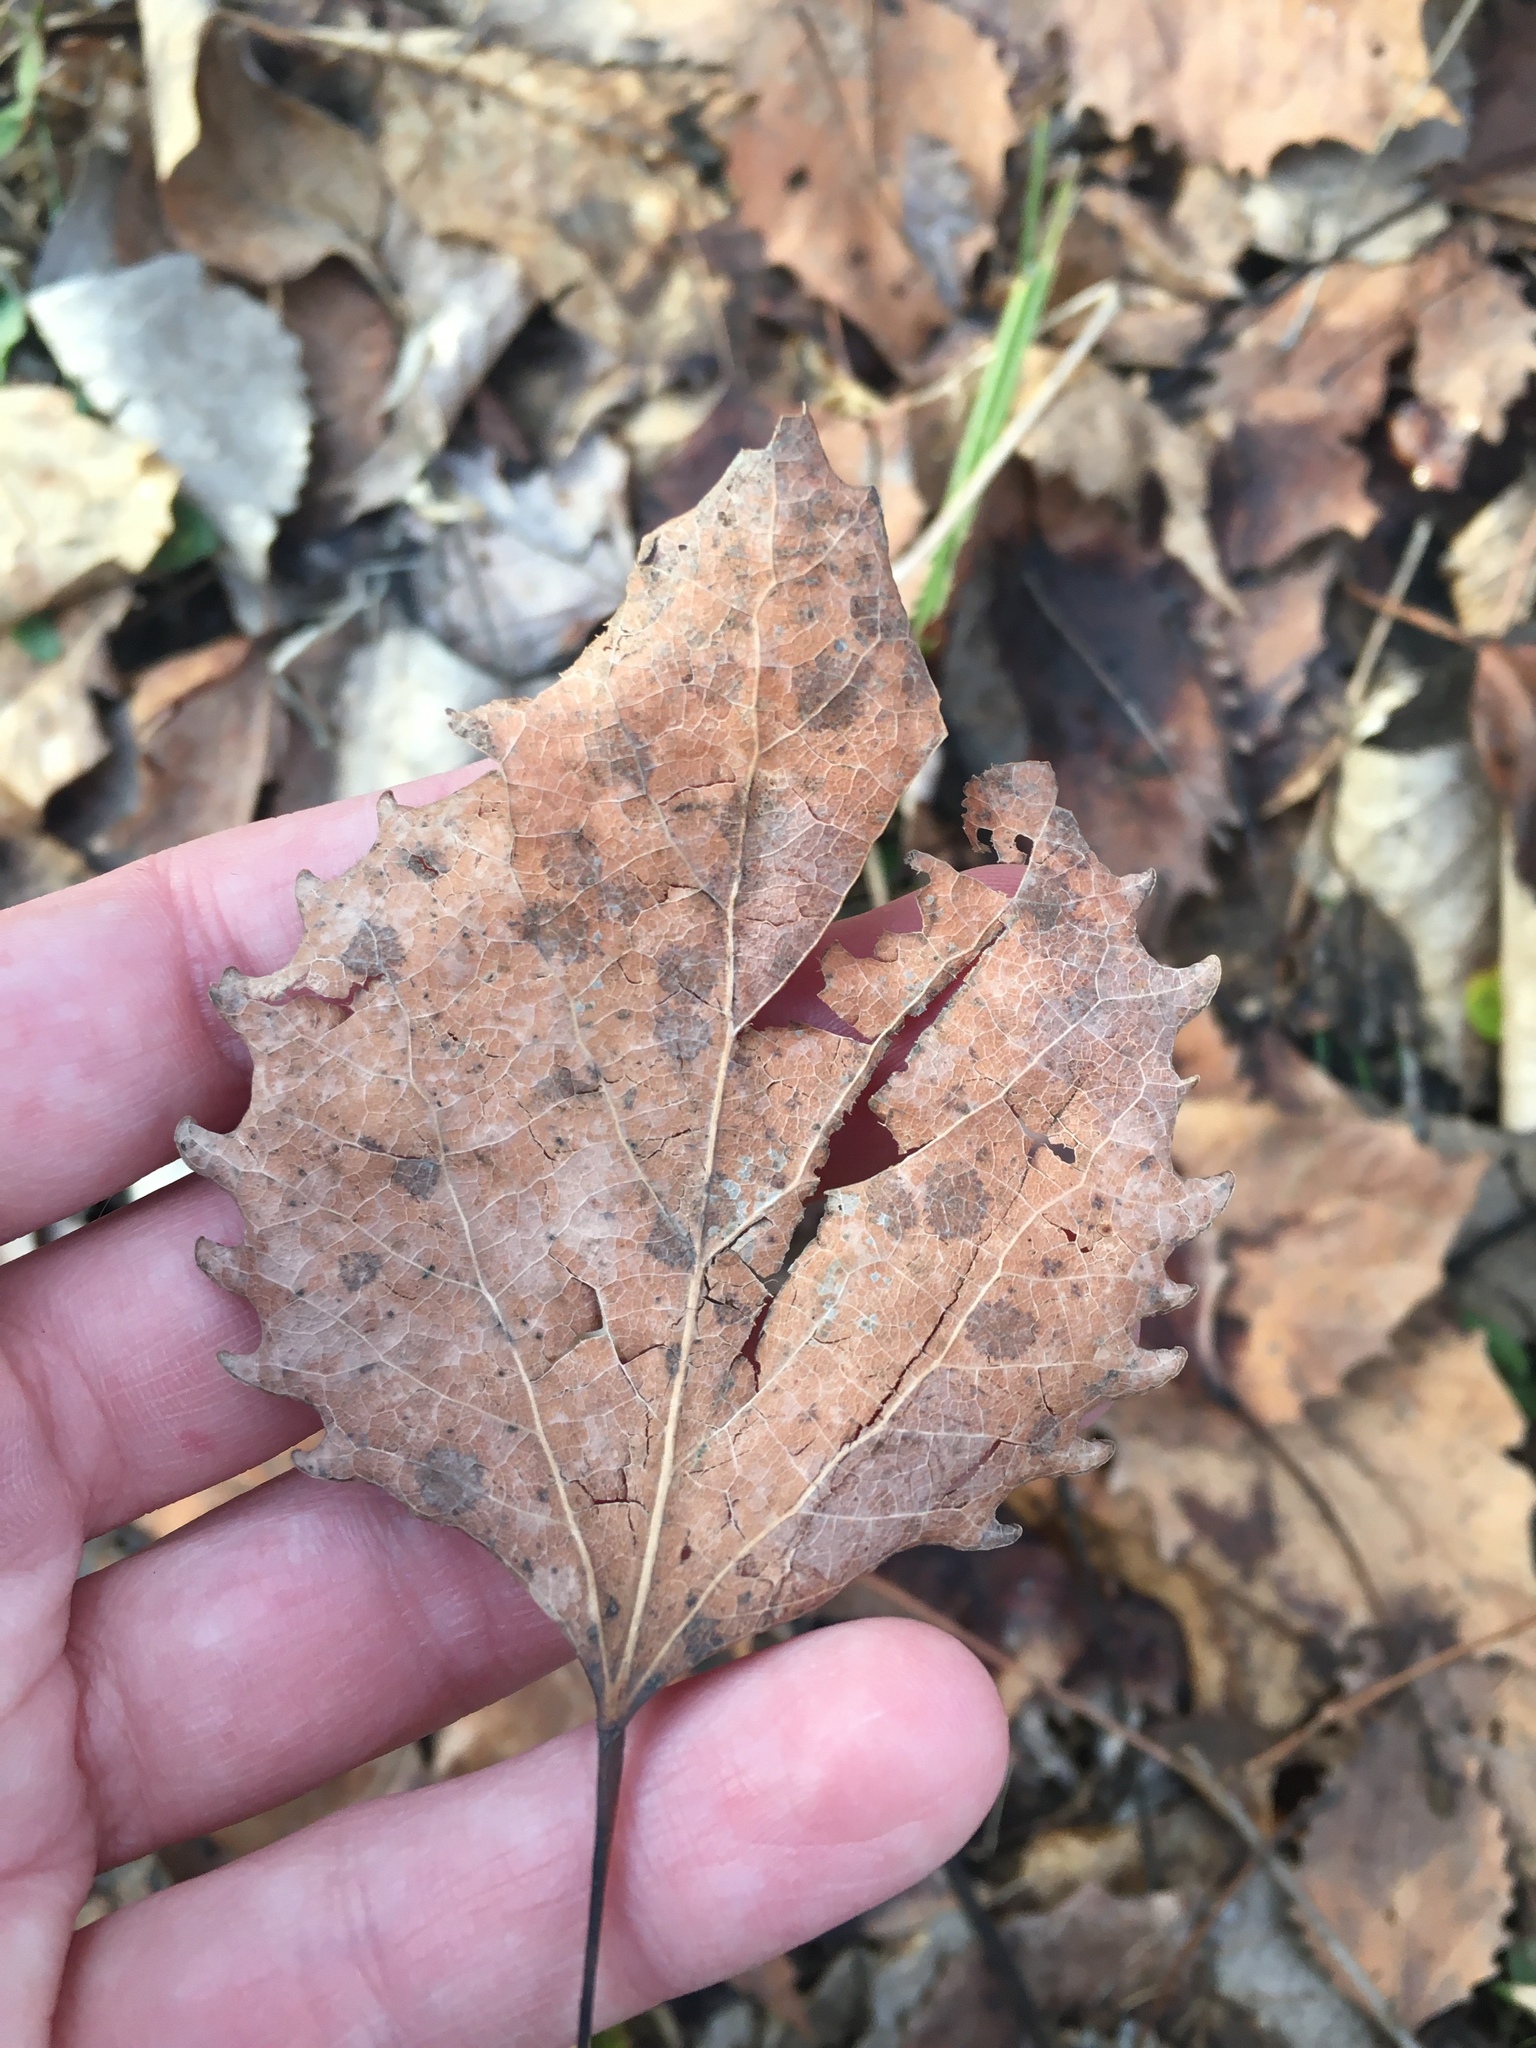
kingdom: Plantae
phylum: Tracheophyta
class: Magnoliopsida
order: Malpighiales
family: Salicaceae
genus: Populus
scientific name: Populus grandidentata
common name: Bigtooth aspen
